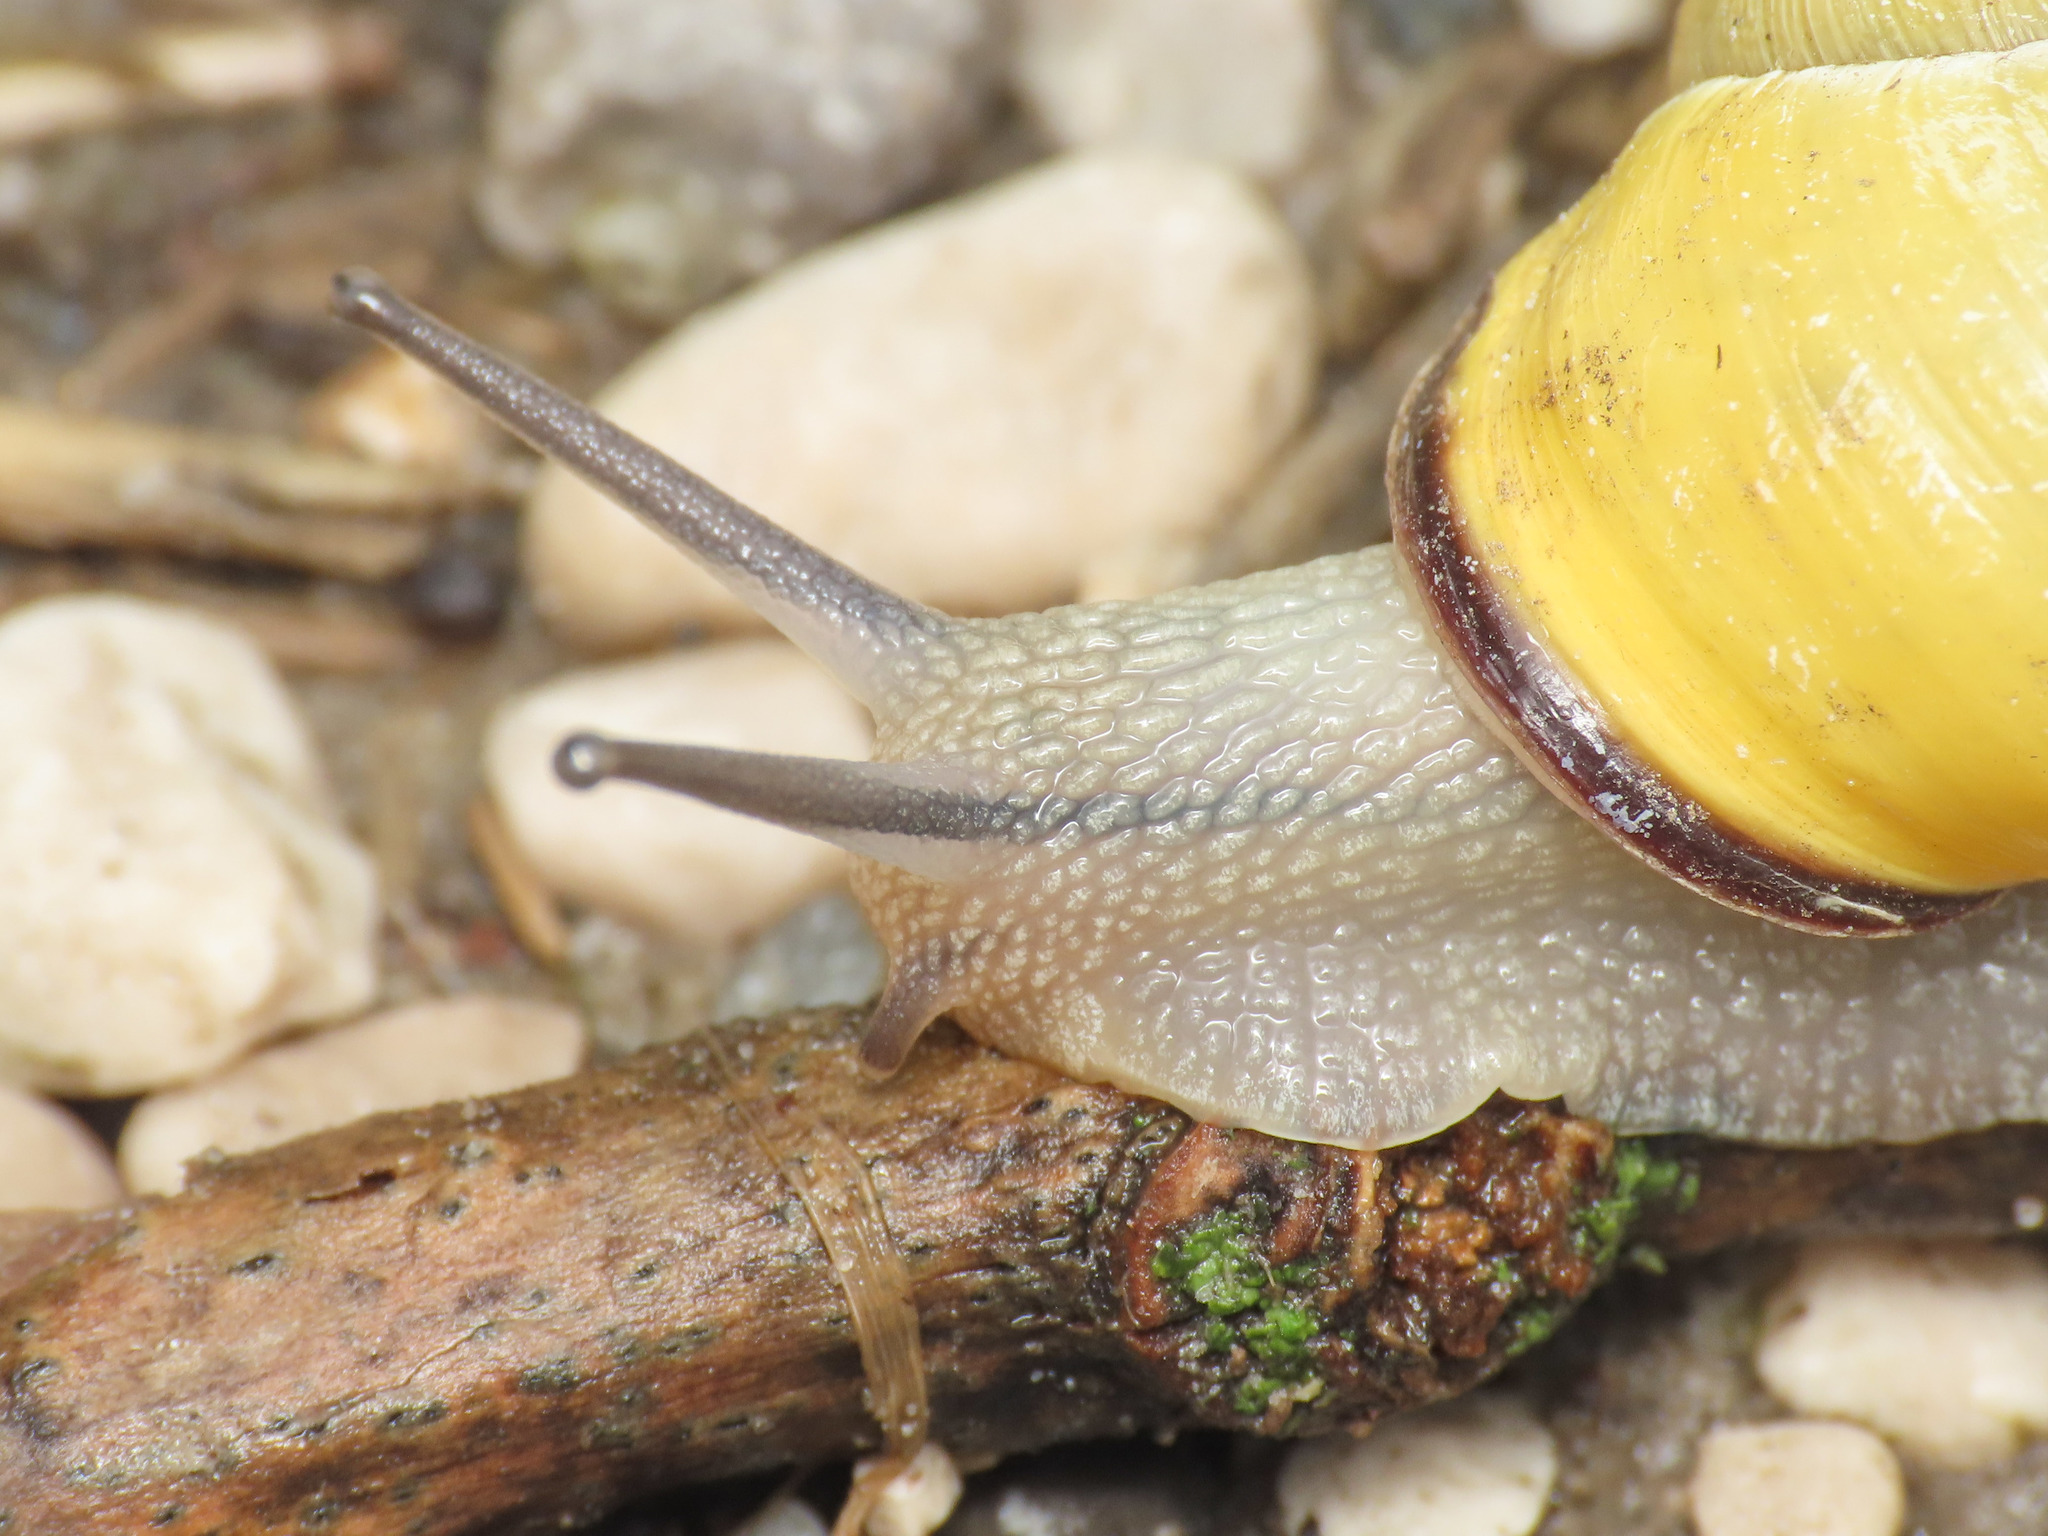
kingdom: Animalia
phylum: Mollusca
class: Gastropoda
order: Stylommatophora
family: Helicidae
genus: Cepaea
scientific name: Cepaea nemoralis
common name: Grovesnail
